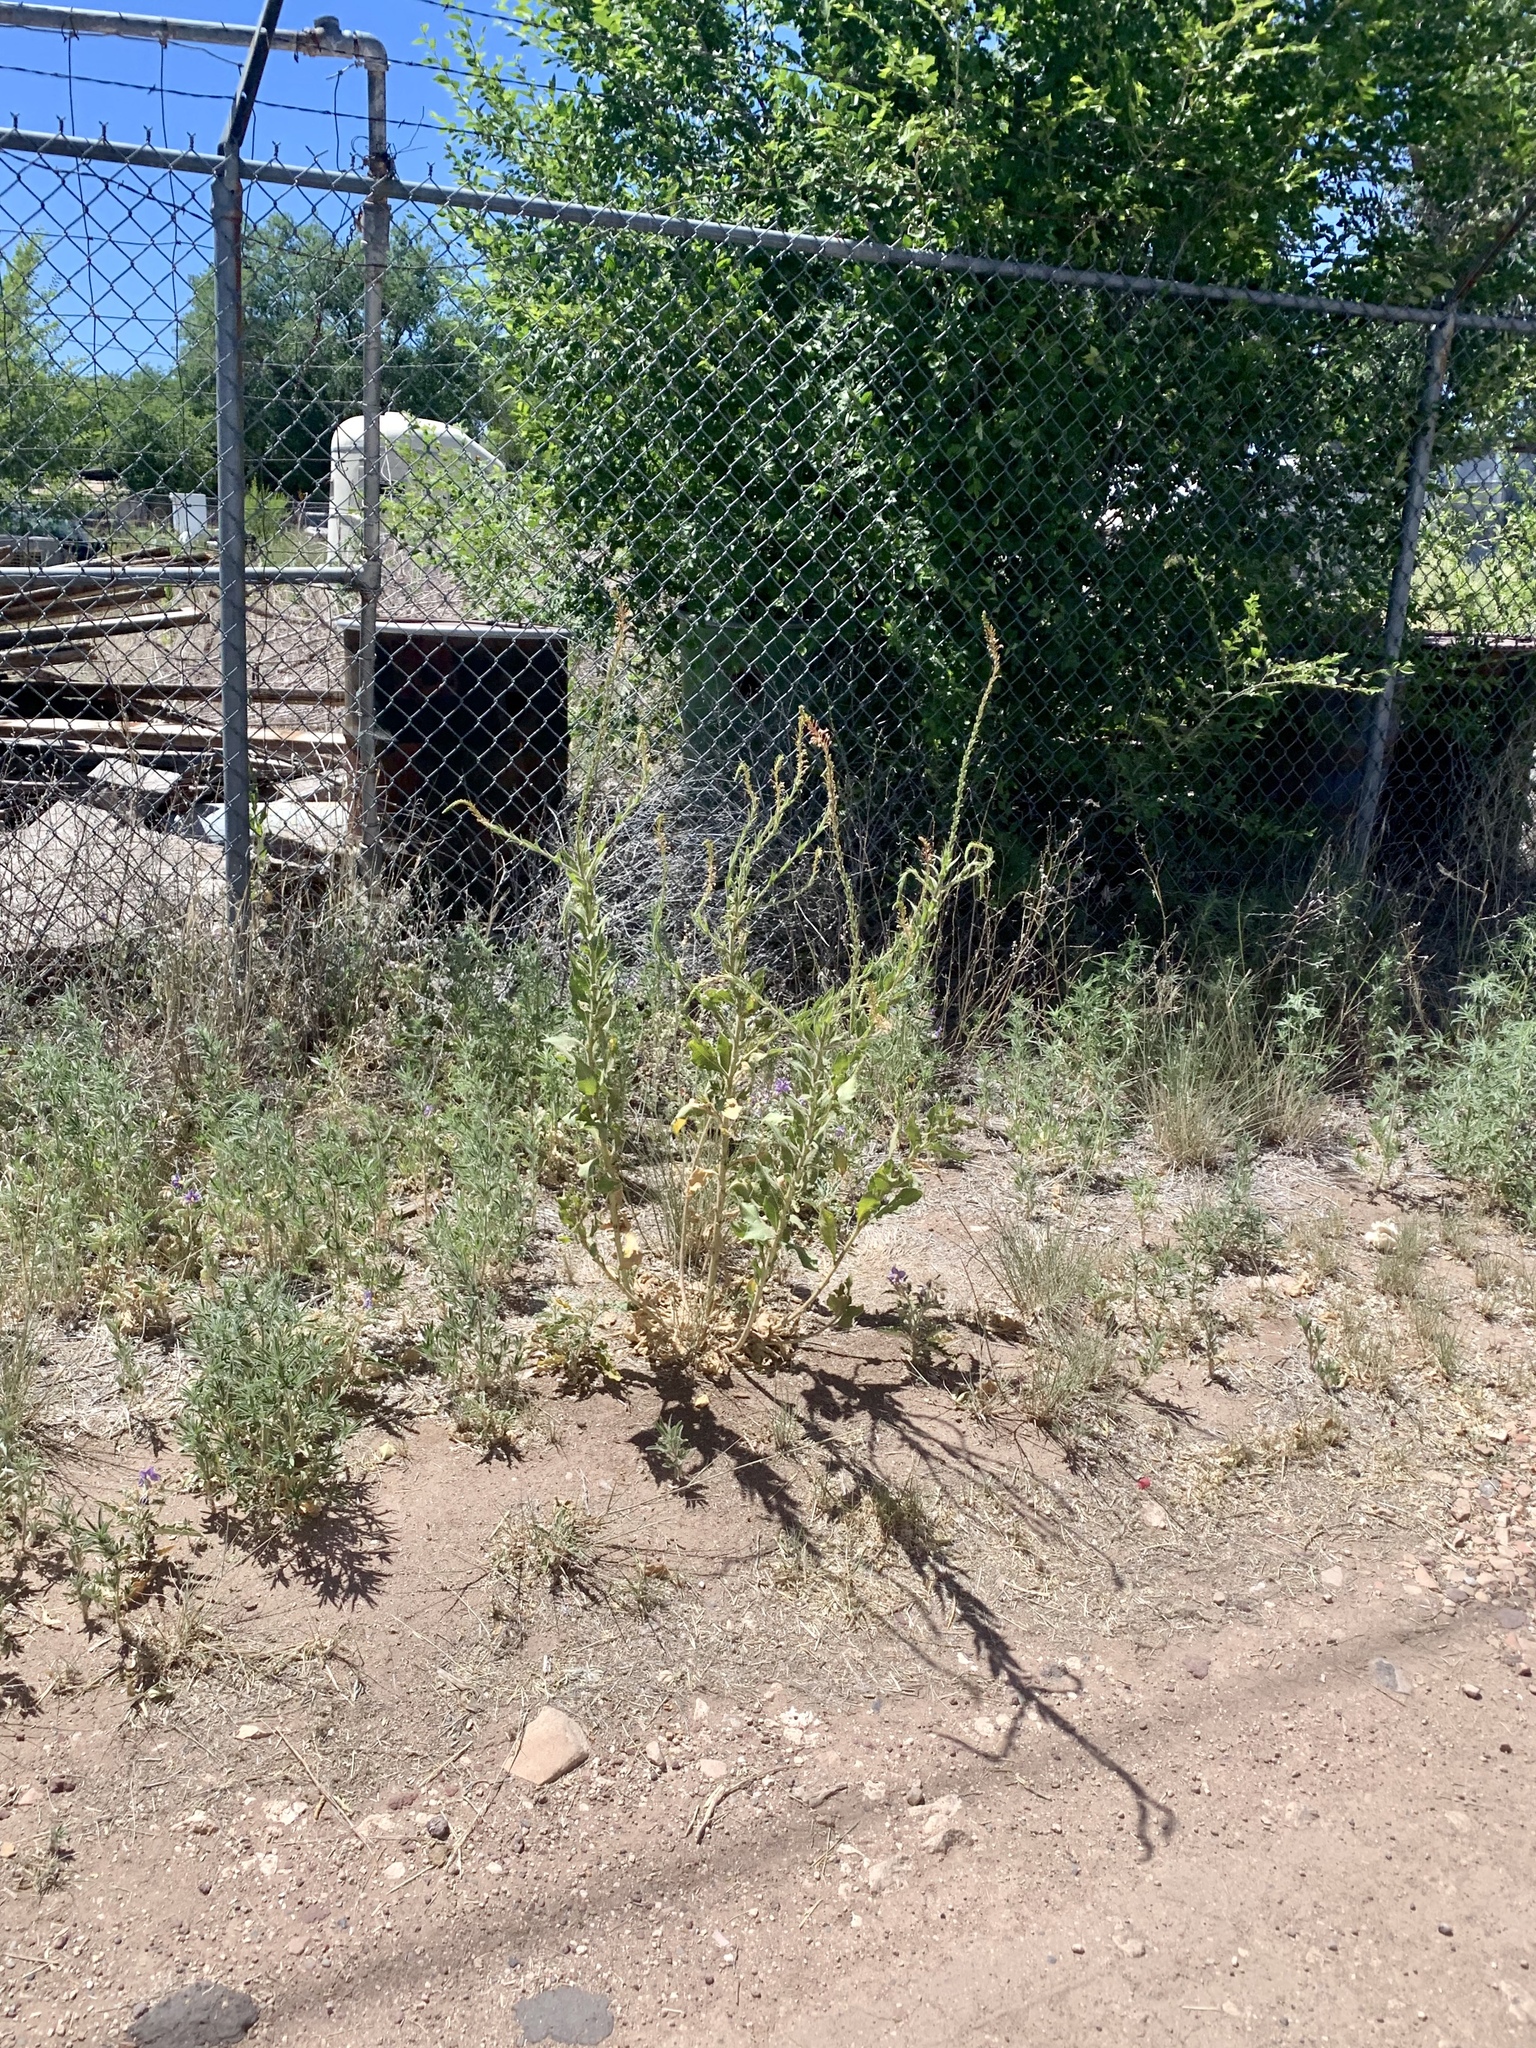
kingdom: Plantae
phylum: Tracheophyta
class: Magnoliopsida
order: Myrtales
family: Onagraceae
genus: Oenothera
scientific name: Oenothera curtiflora
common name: Velvetweed
